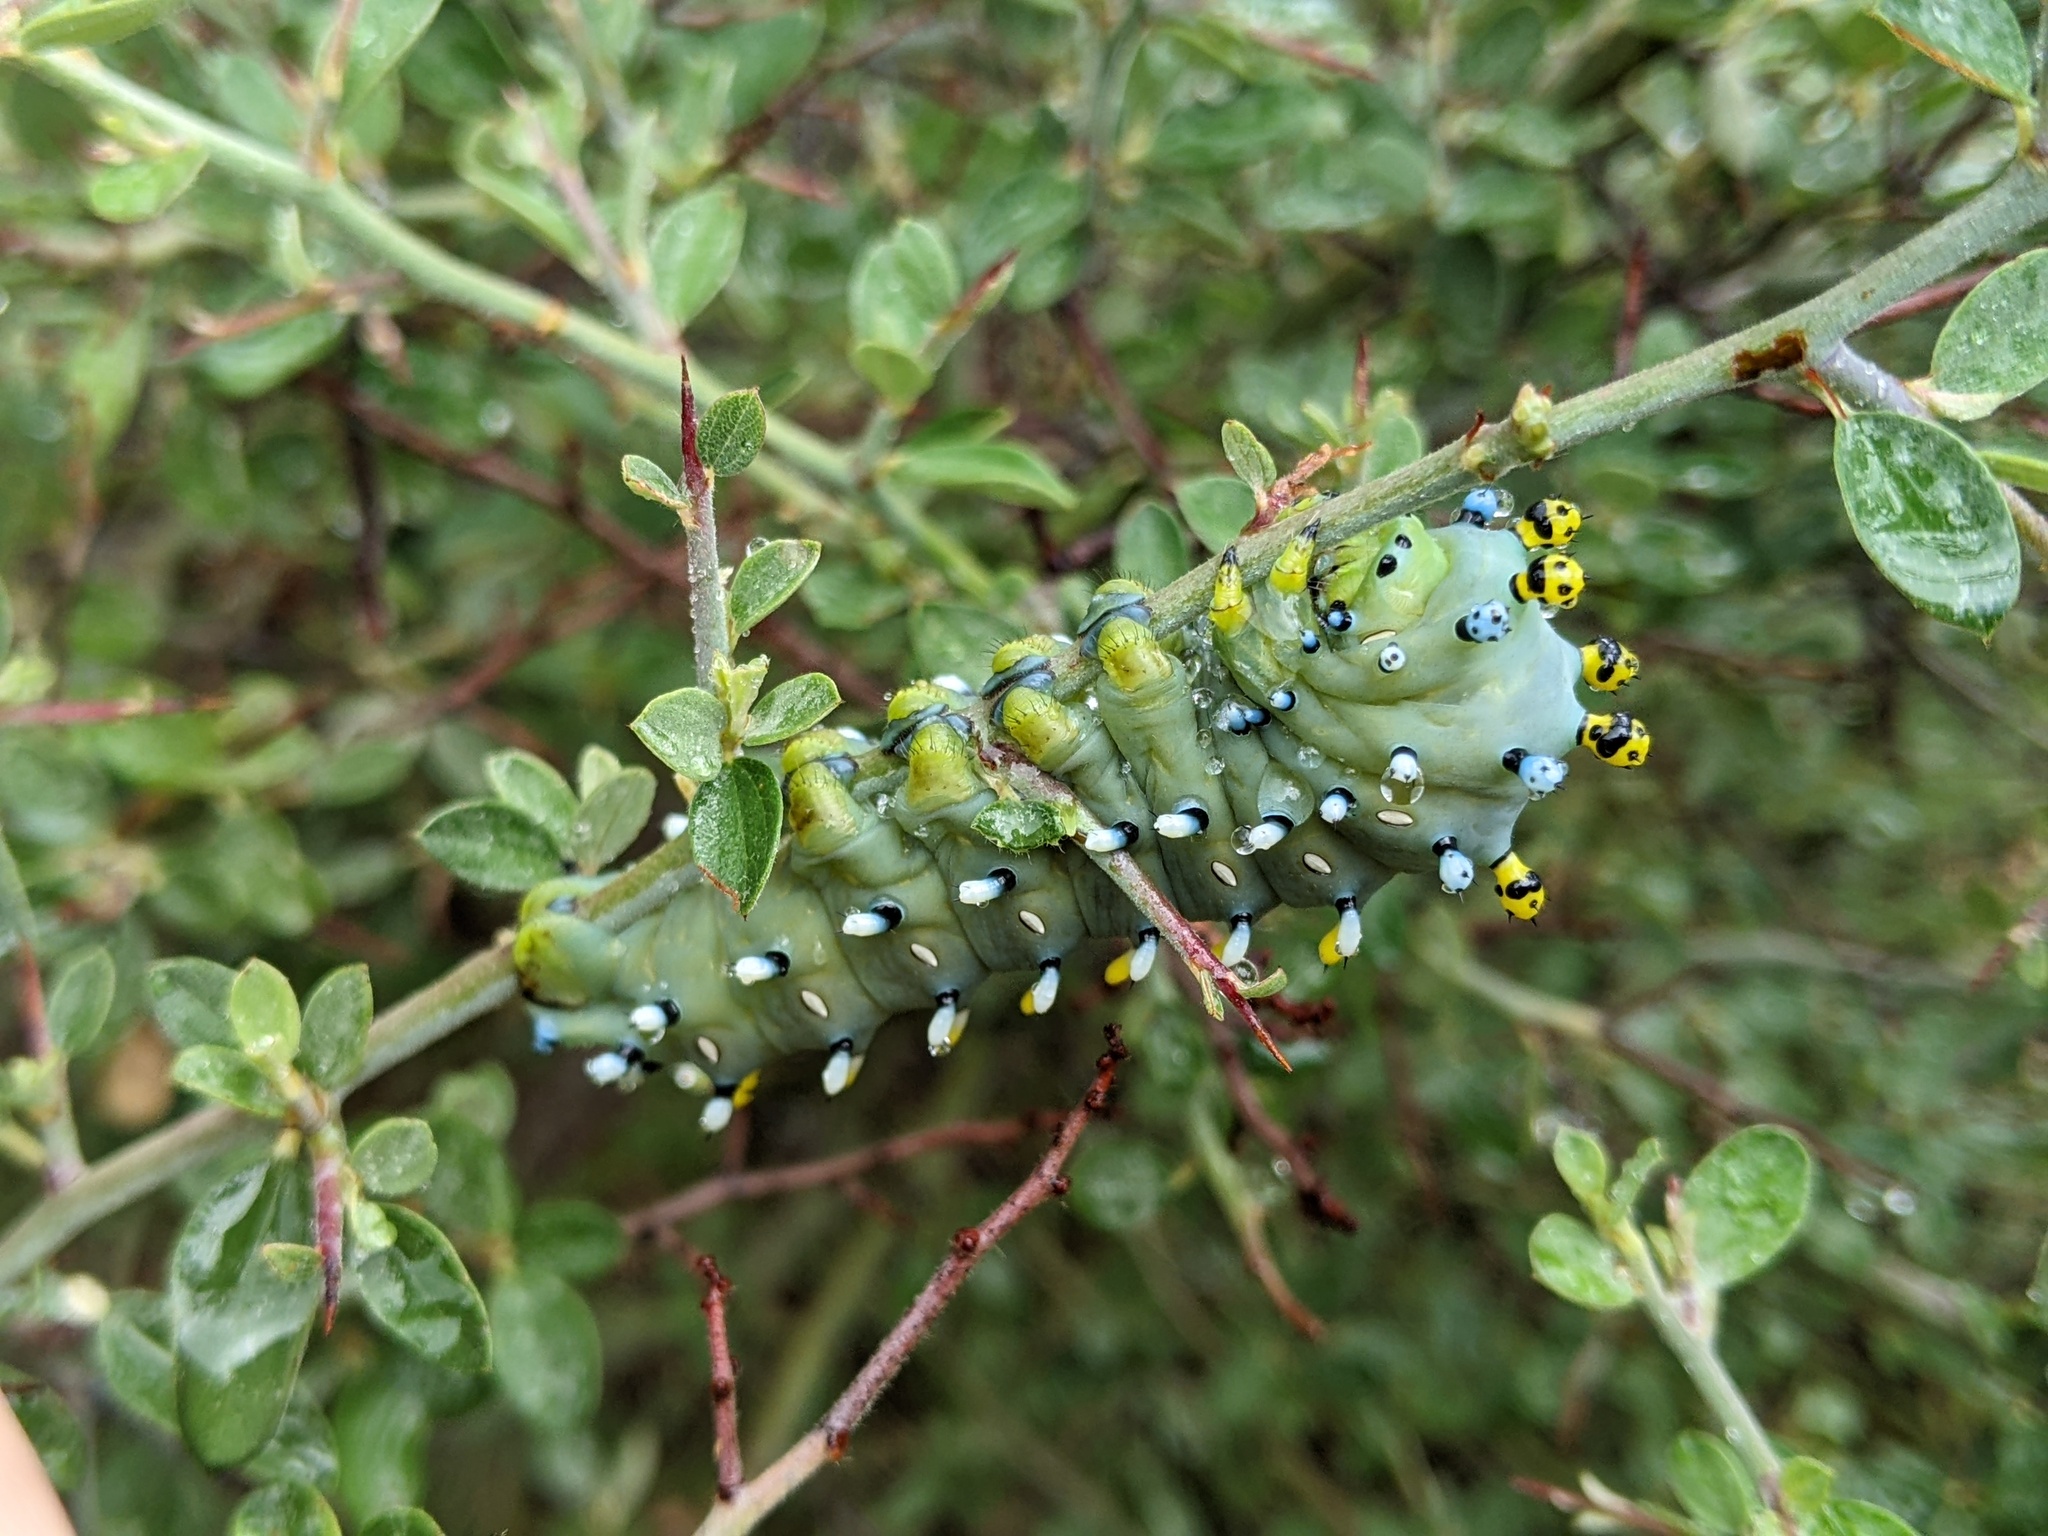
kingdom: Animalia
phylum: Arthropoda
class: Insecta
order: Lepidoptera
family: Saturniidae
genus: Hyalophora
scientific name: Hyalophora gloveri
